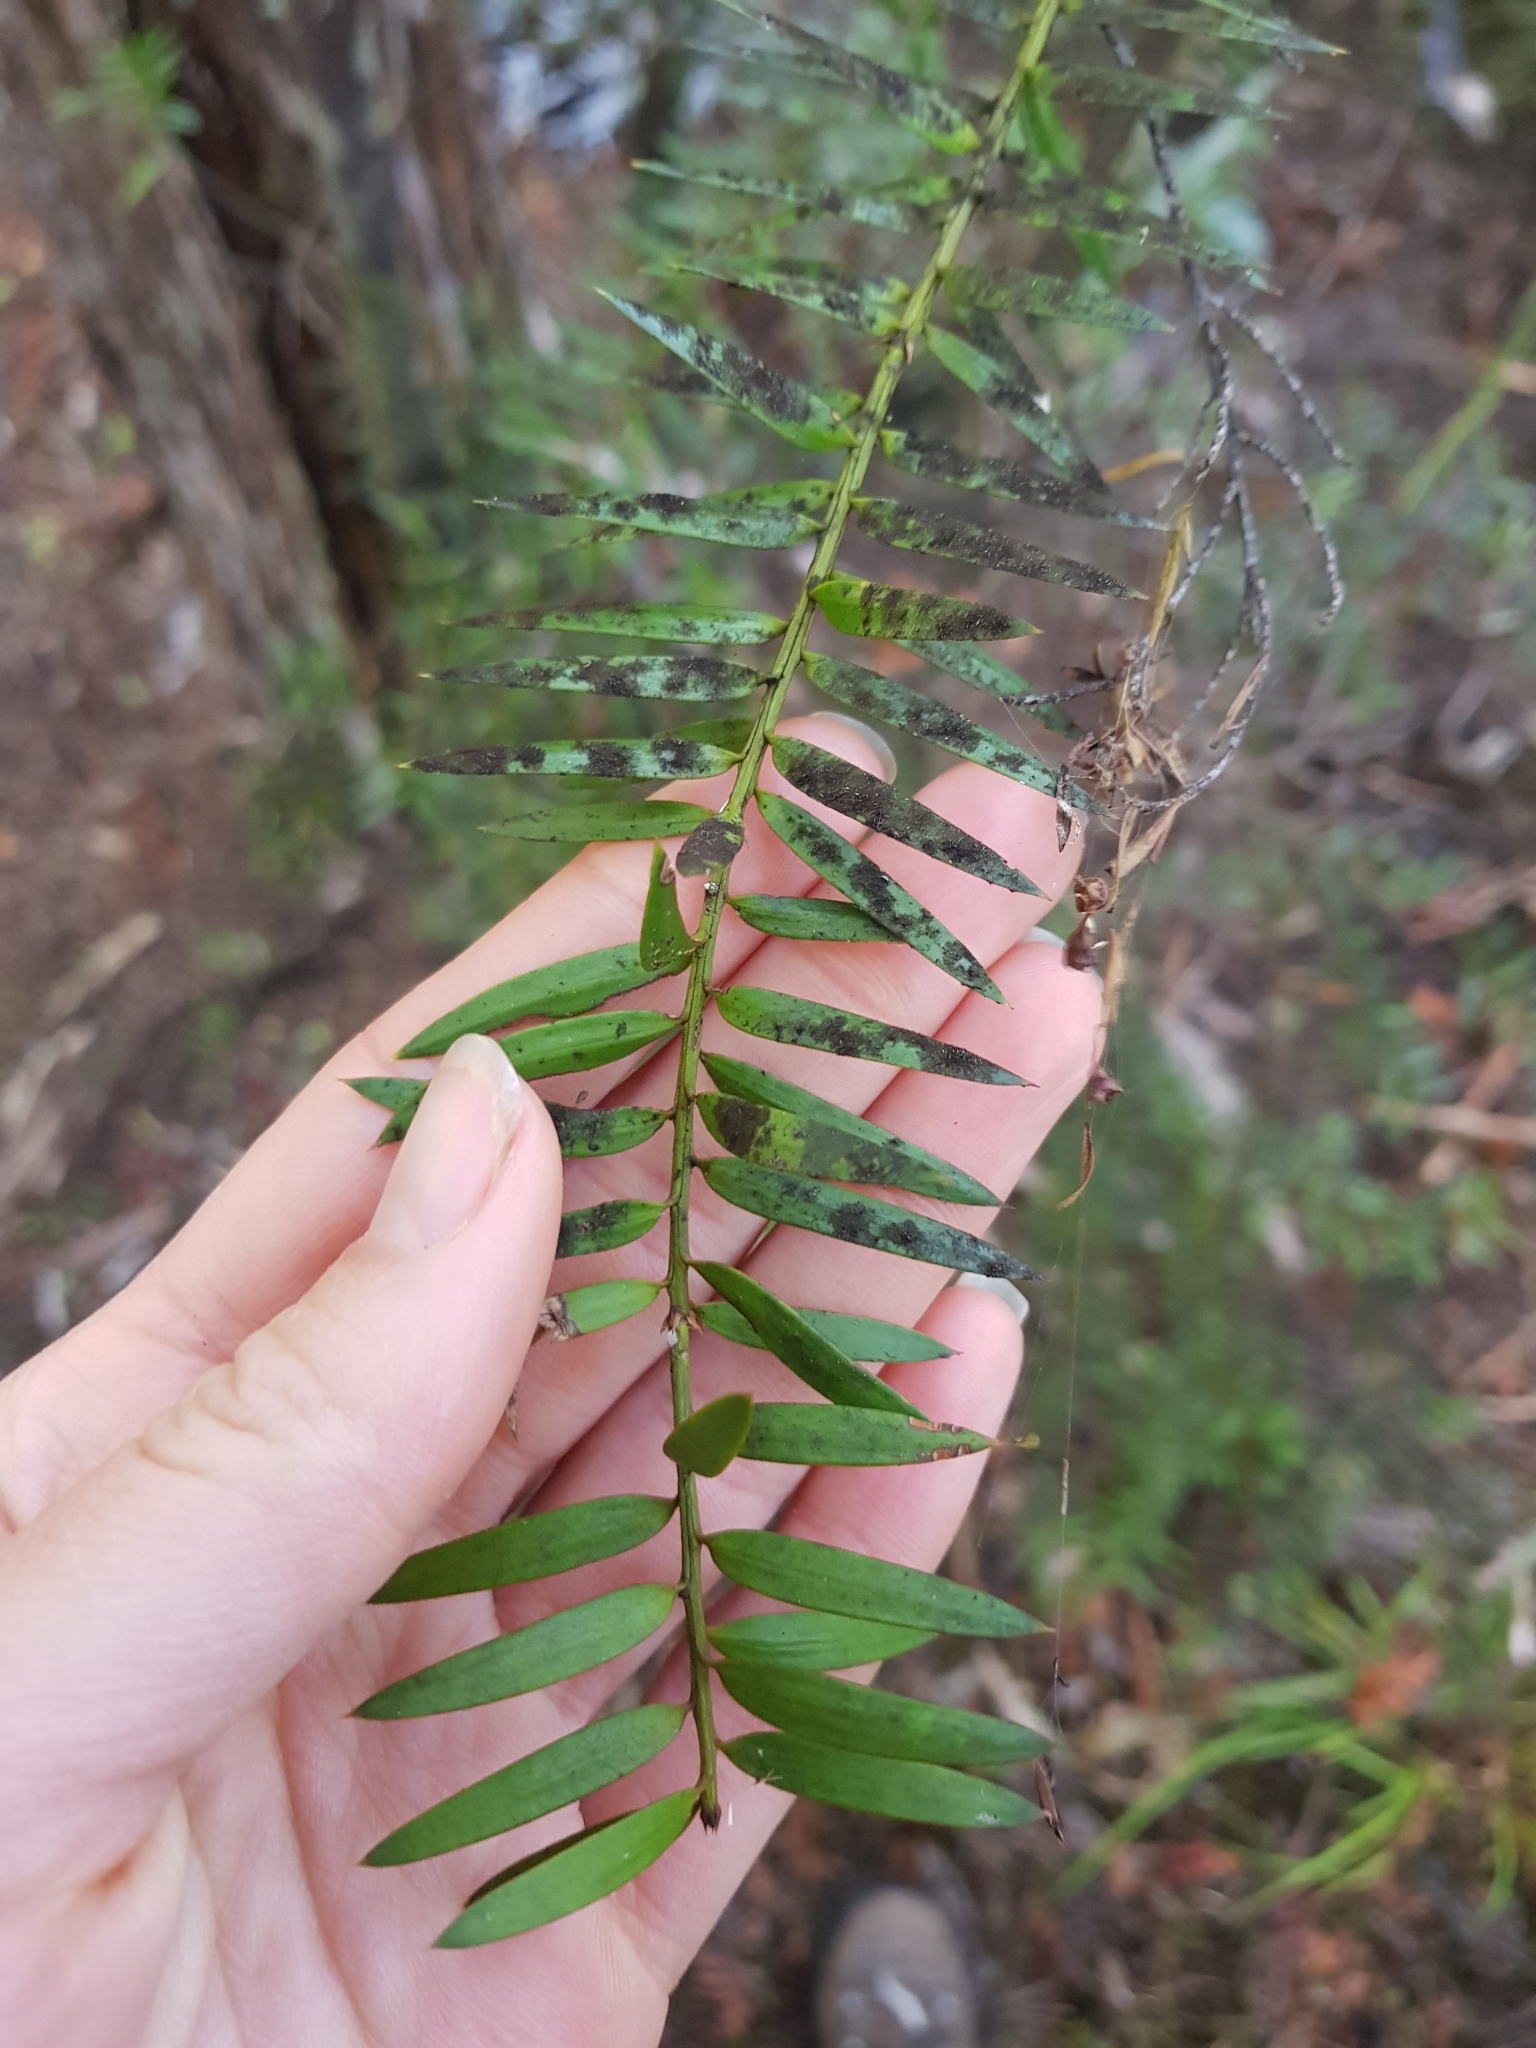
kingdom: Plantae
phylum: Tracheophyta
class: Pinopsida
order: Pinales
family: Podocarpaceae
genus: Podocarpus
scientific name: Podocarpus totara
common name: Totara
